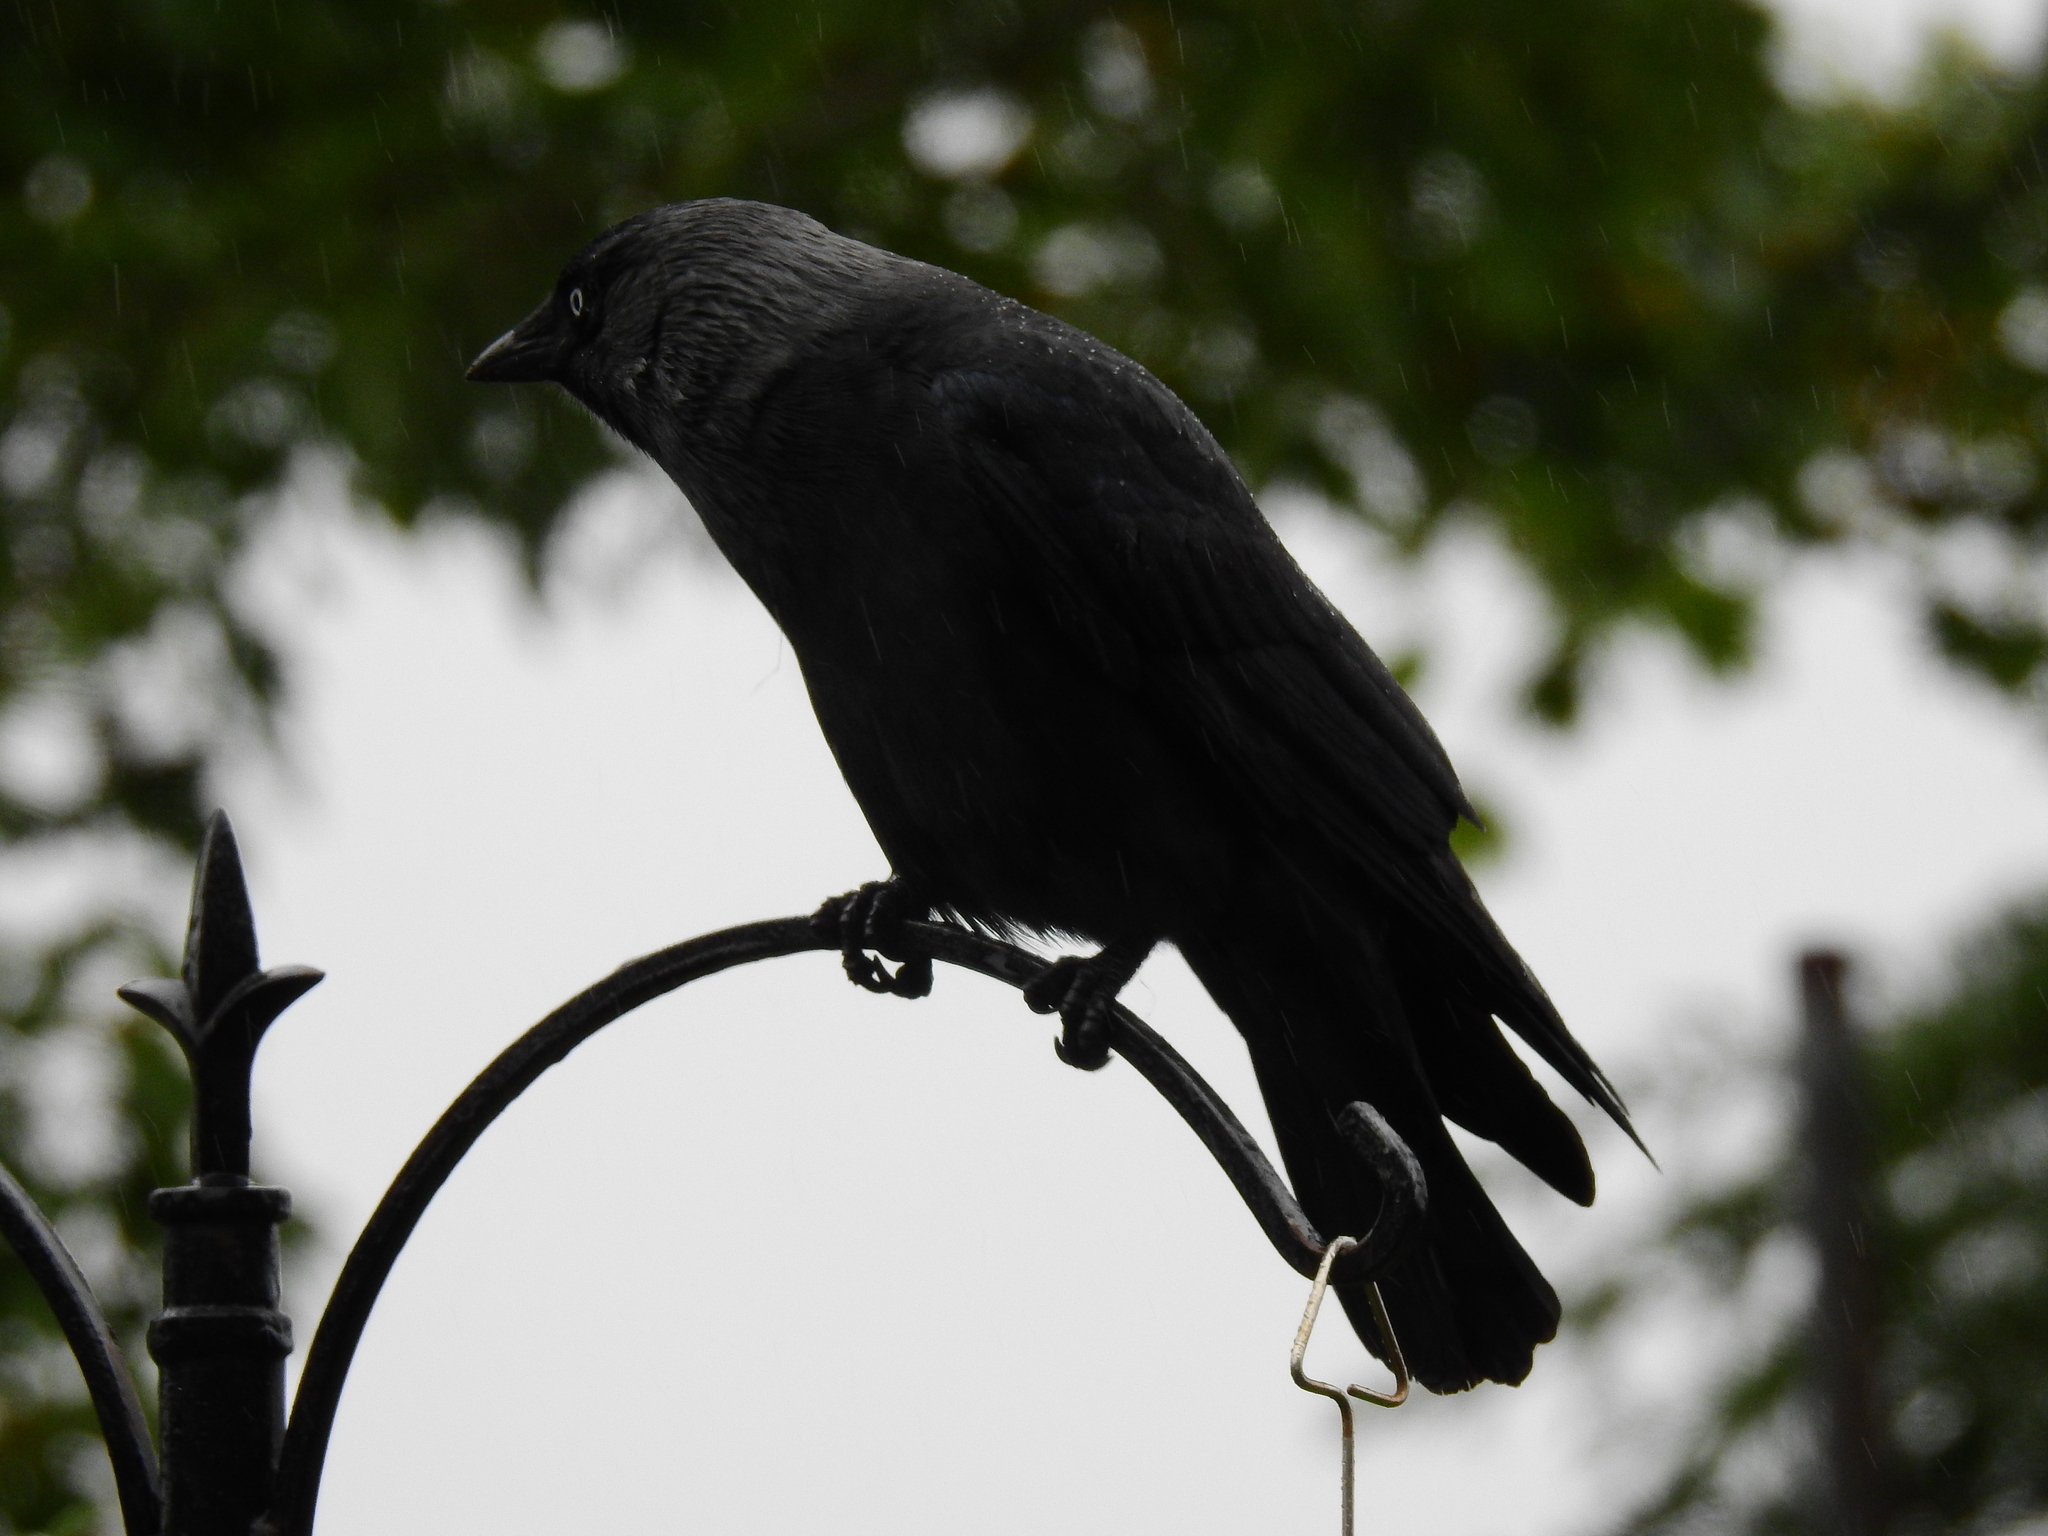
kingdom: Animalia
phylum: Chordata
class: Aves
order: Passeriformes
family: Corvidae
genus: Coloeus
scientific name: Coloeus monedula
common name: Western jackdaw
